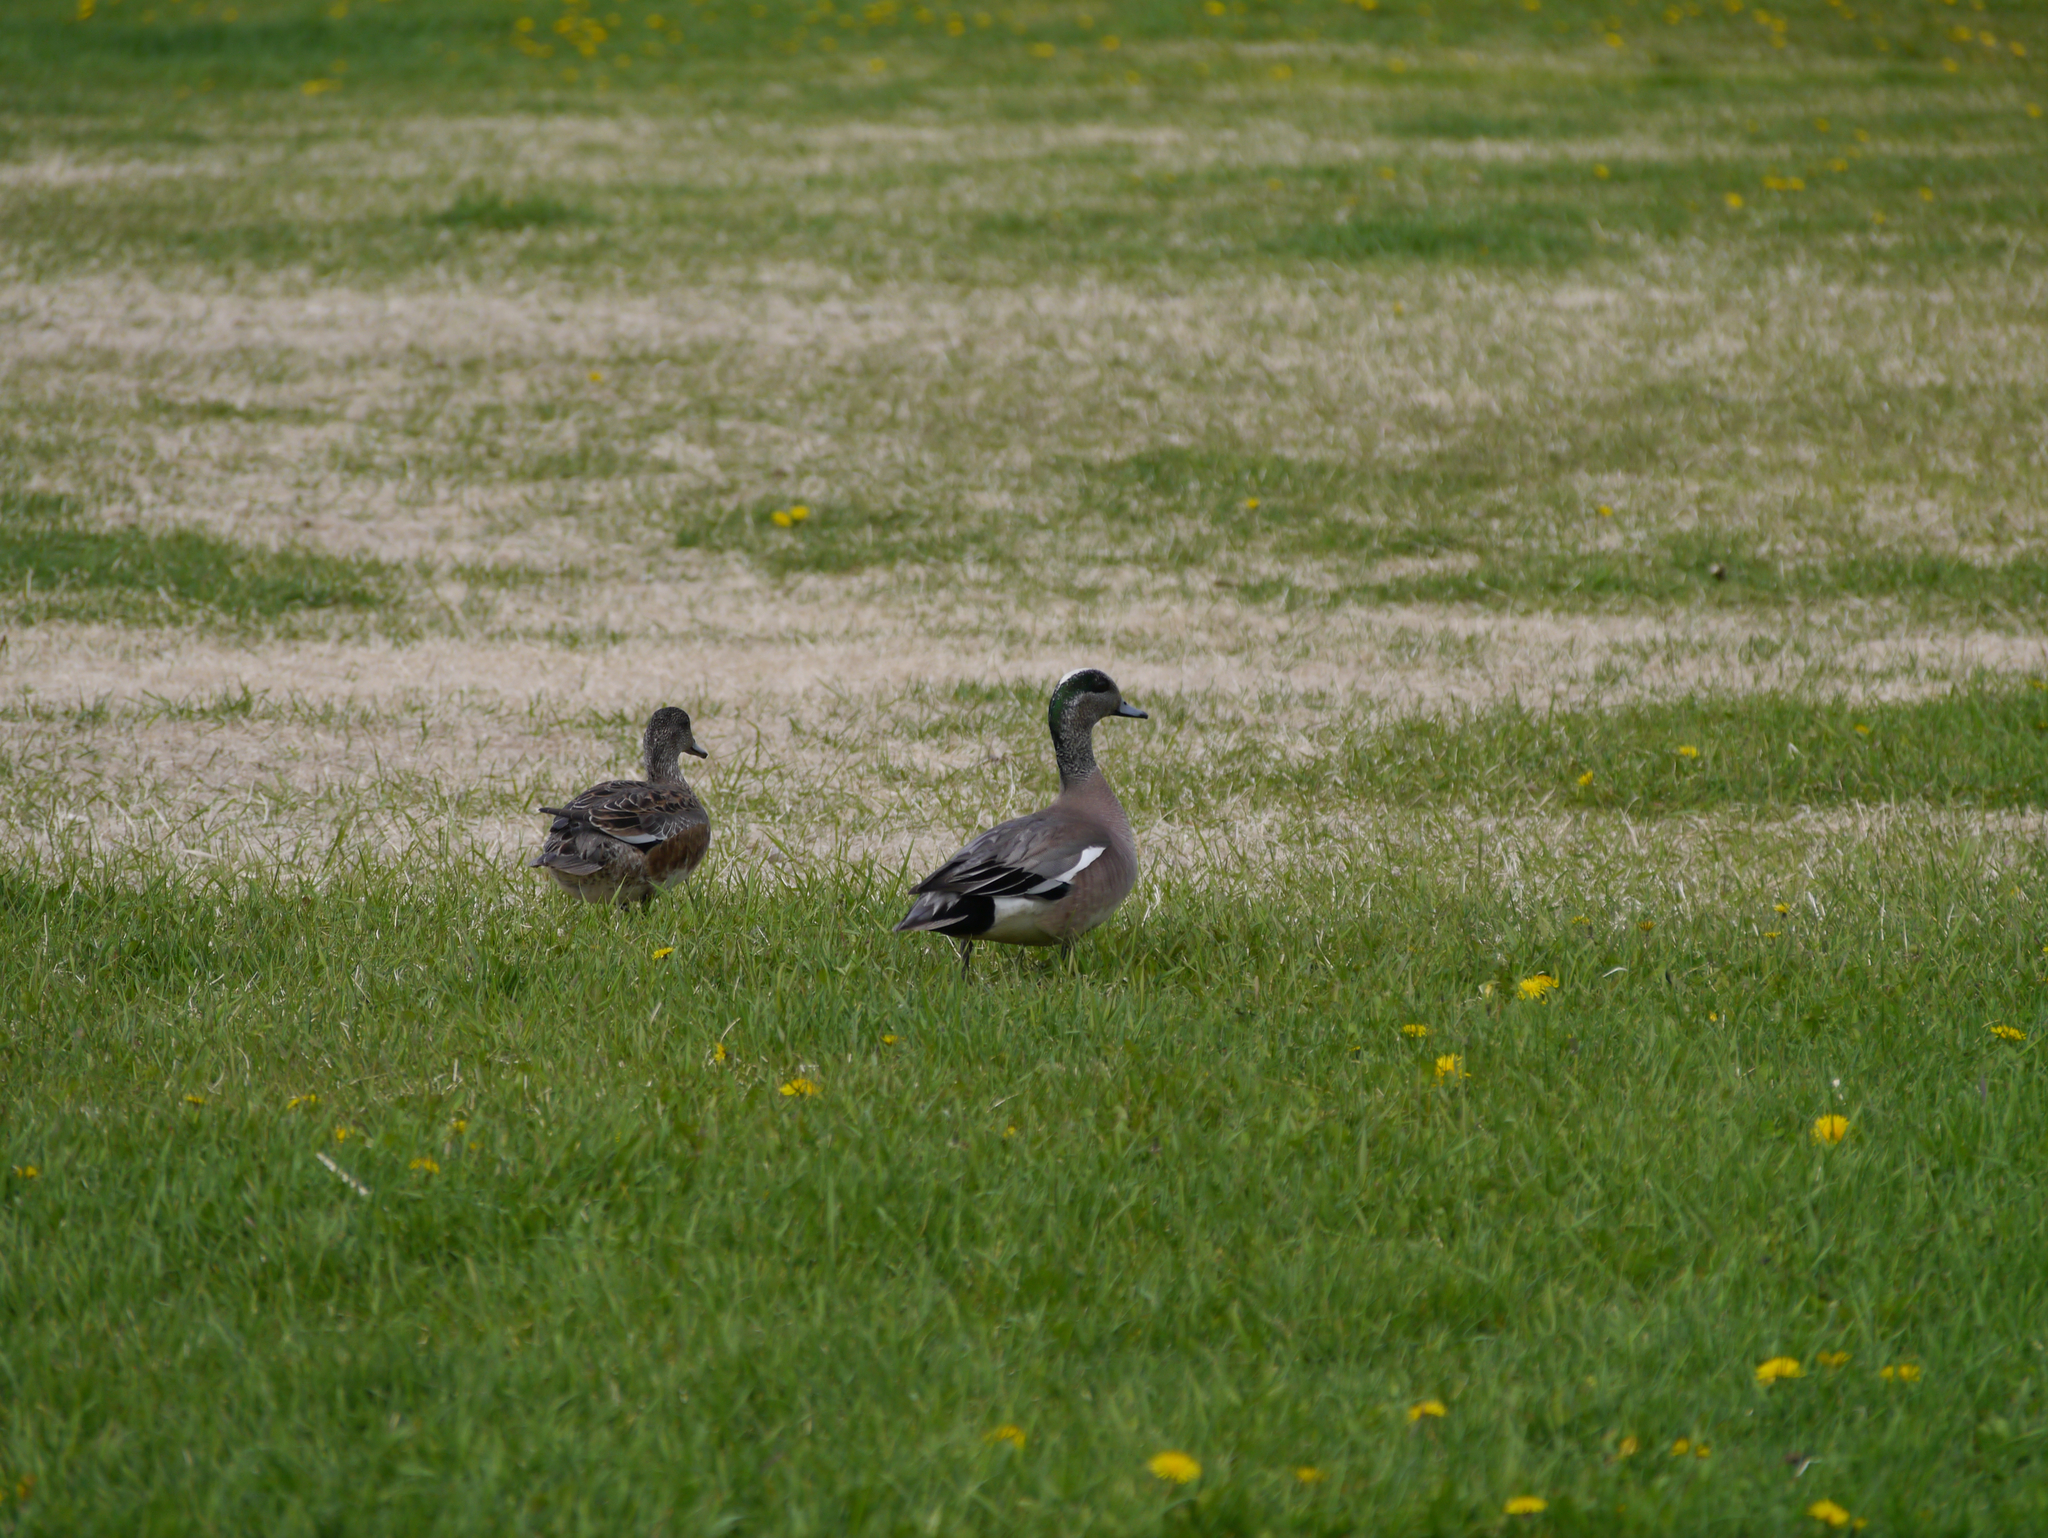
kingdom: Animalia
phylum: Chordata
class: Aves
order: Anseriformes
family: Anatidae
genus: Mareca
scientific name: Mareca americana
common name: American wigeon
